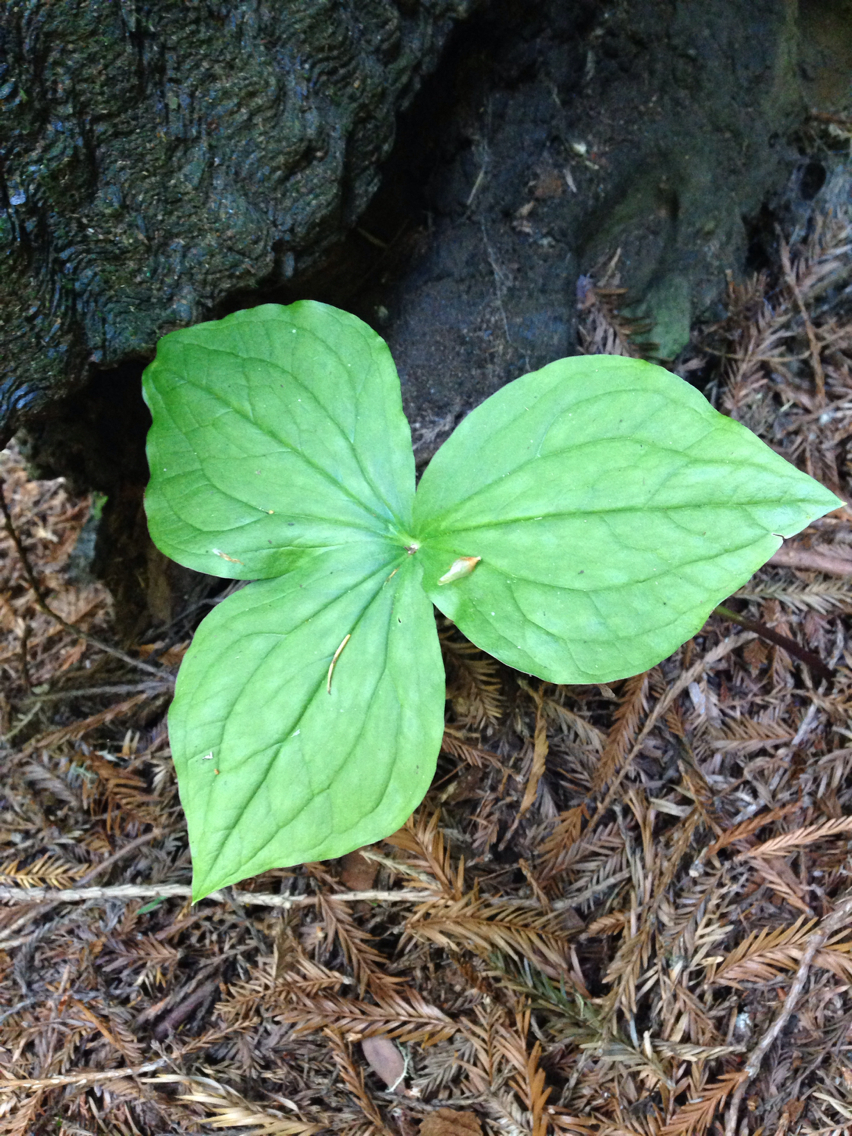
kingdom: Plantae
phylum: Tracheophyta
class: Liliopsida
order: Liliales
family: Melanthiaceae
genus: Trillium
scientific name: Trillium ovatum
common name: Pacific trillium
